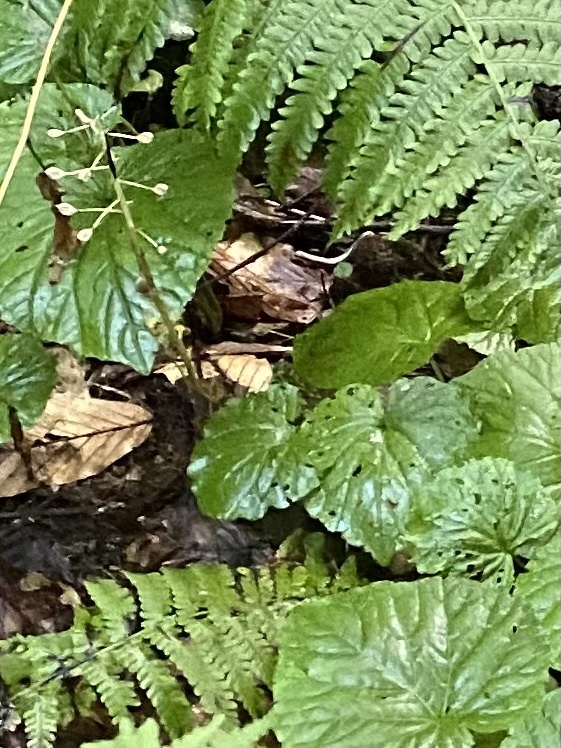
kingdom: Plantae
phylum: Tracheophyta
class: Magnoliopsida
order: Brassicales
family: Brassicaceae
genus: Pachyphragma
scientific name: Pachyphragma macrophyllum
